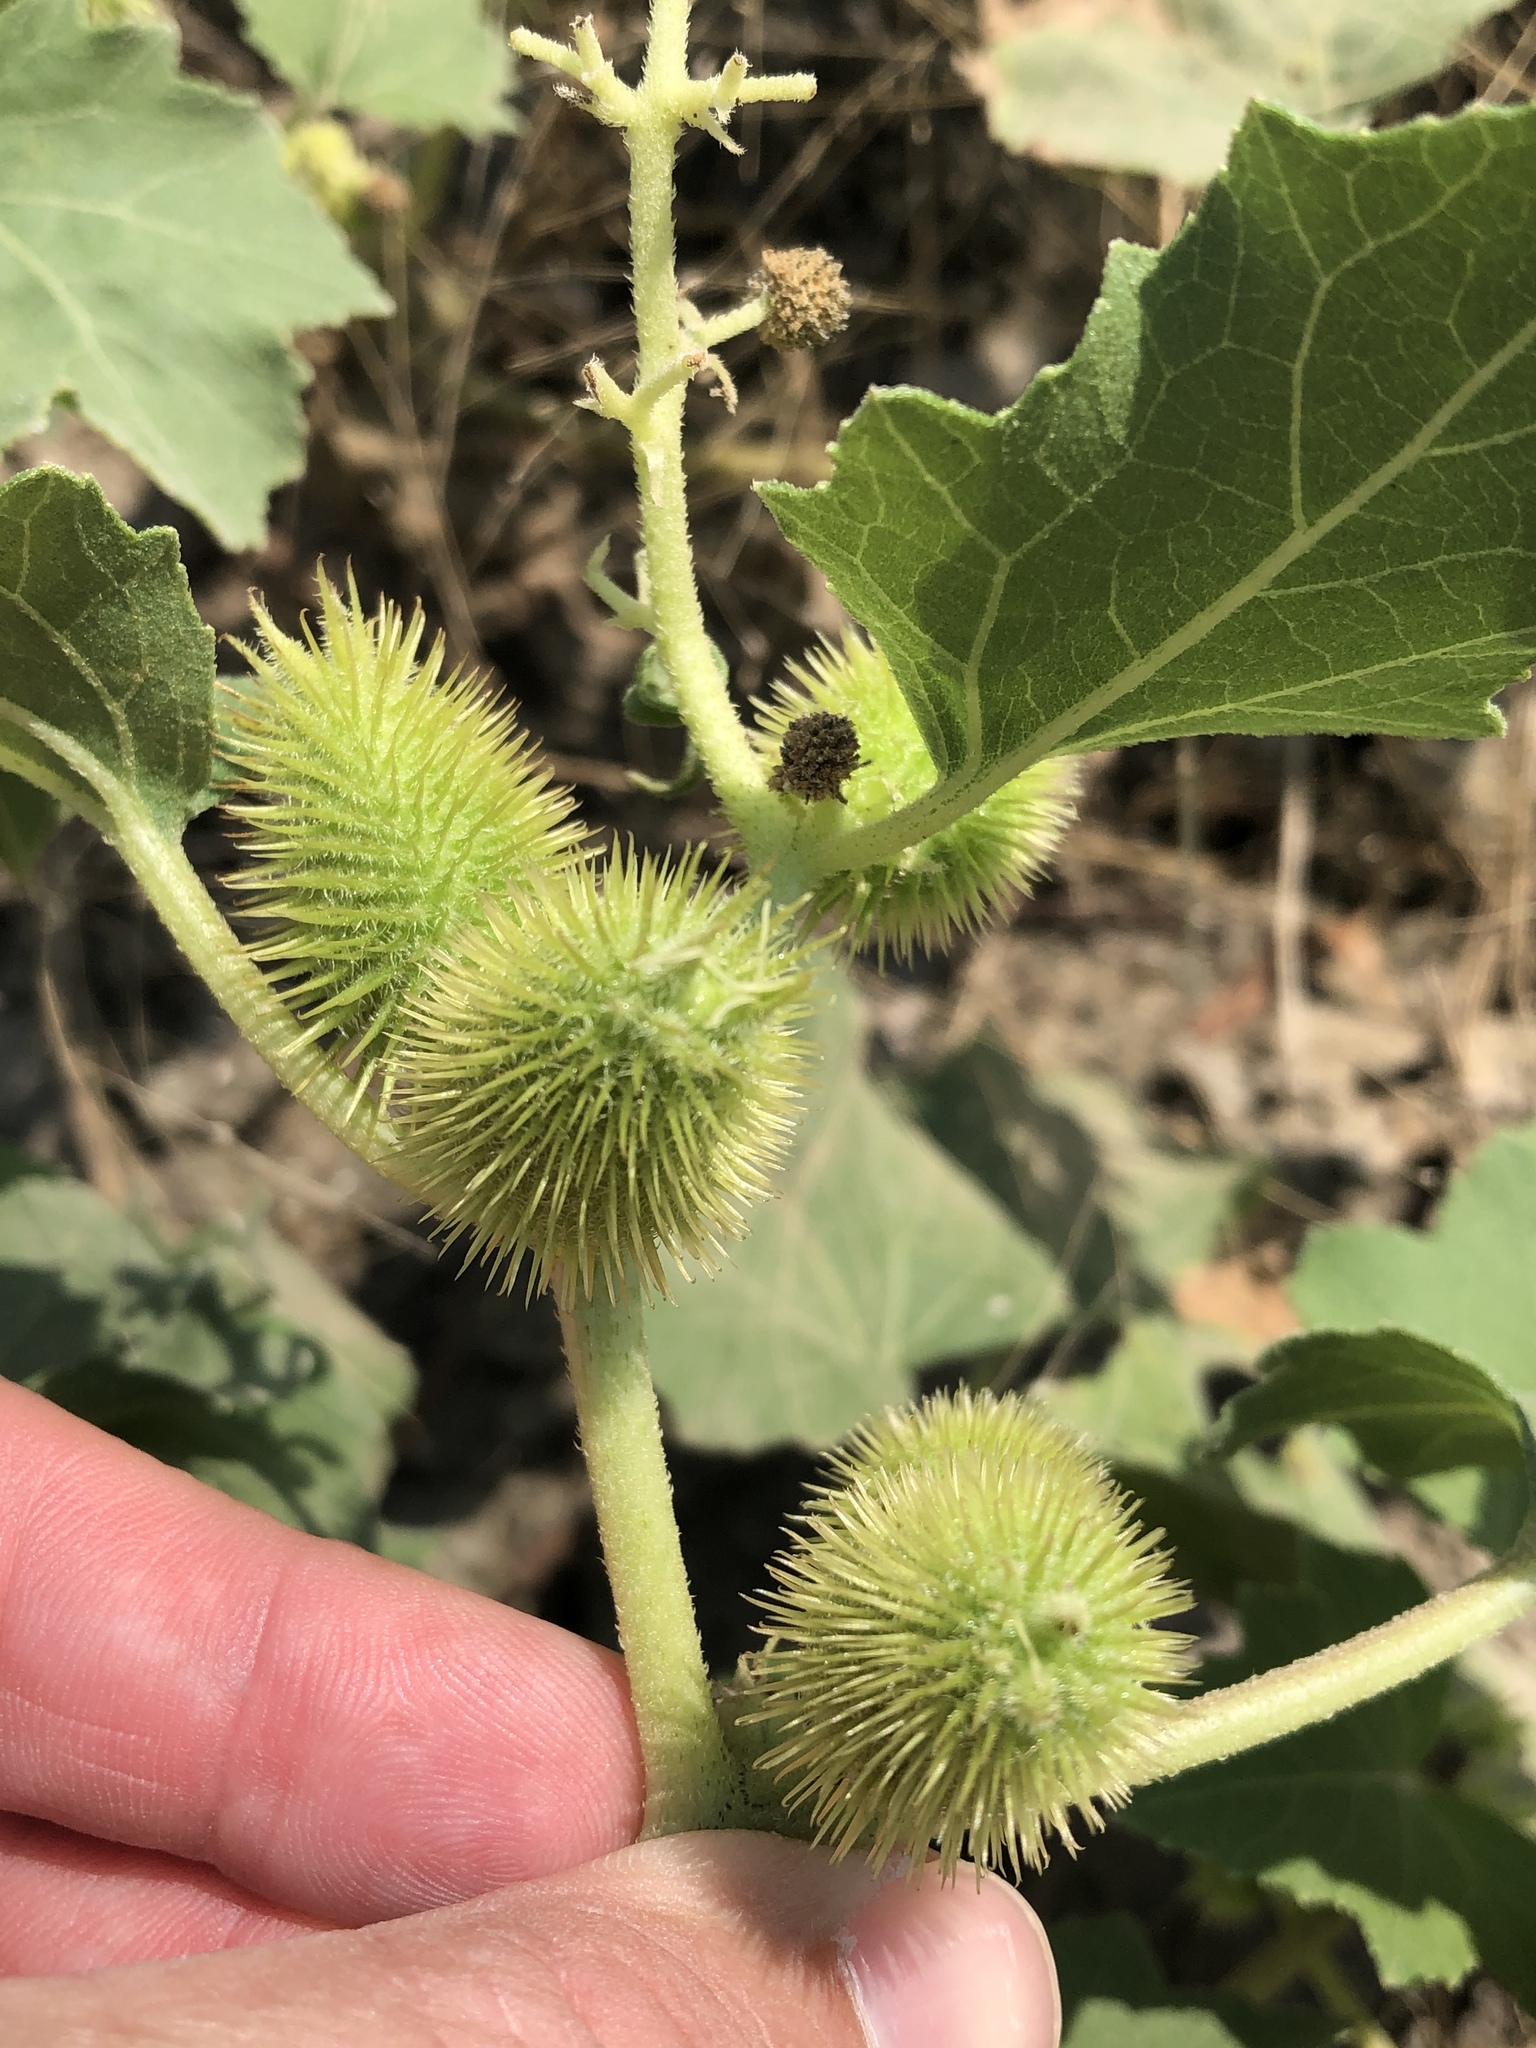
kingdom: Plantae
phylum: Tracheophyta
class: Magnoliopsida
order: Asterales
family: Asteraceae
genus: Xanthium
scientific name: Xanthium strumarium
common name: Rough cocklebur
